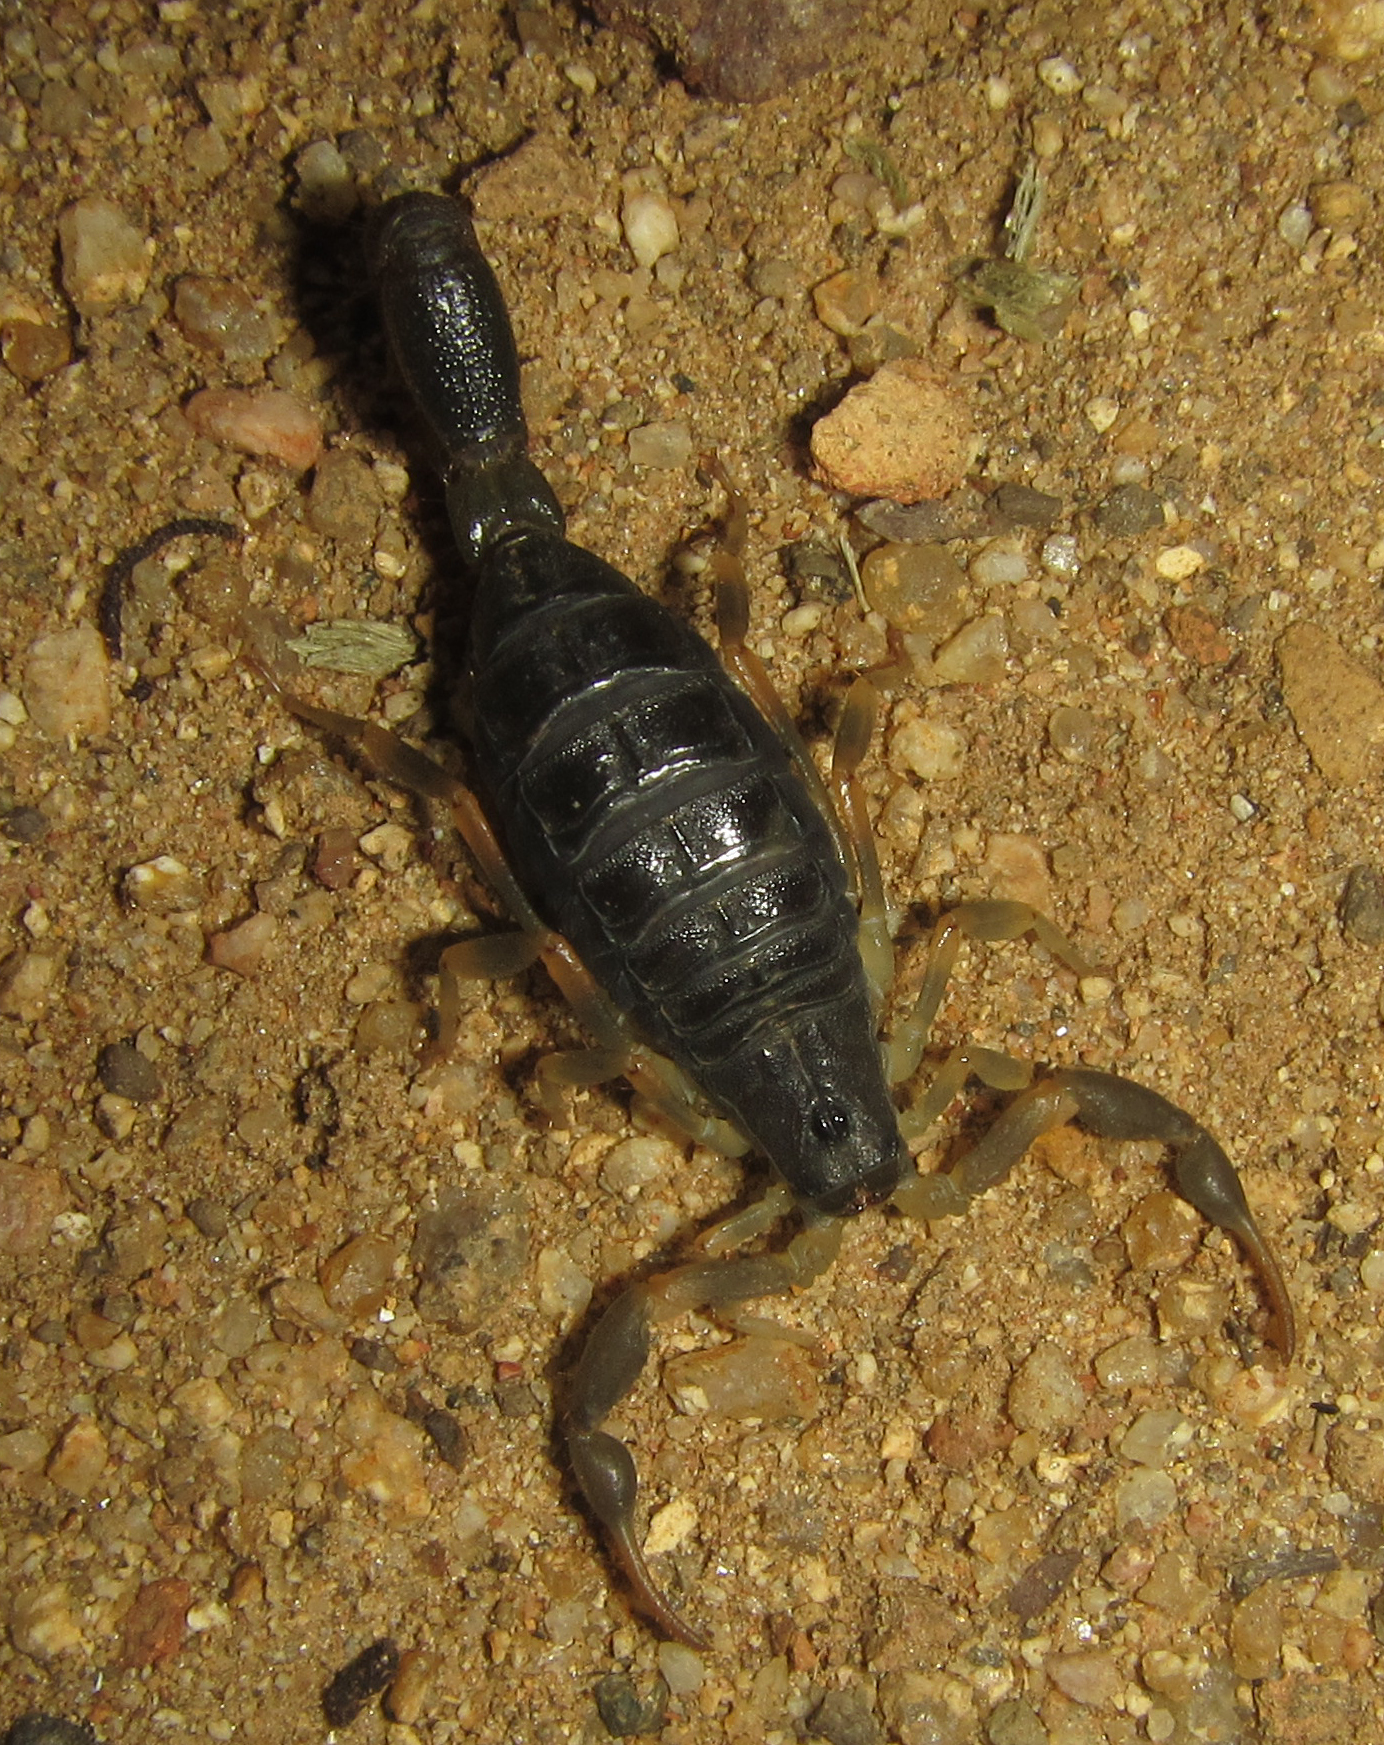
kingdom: Animalia
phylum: Arthropoda
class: Arachnida
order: Scorpiones
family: Buthidae
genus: Uroplectes
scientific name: Uroplectes triangulifer
